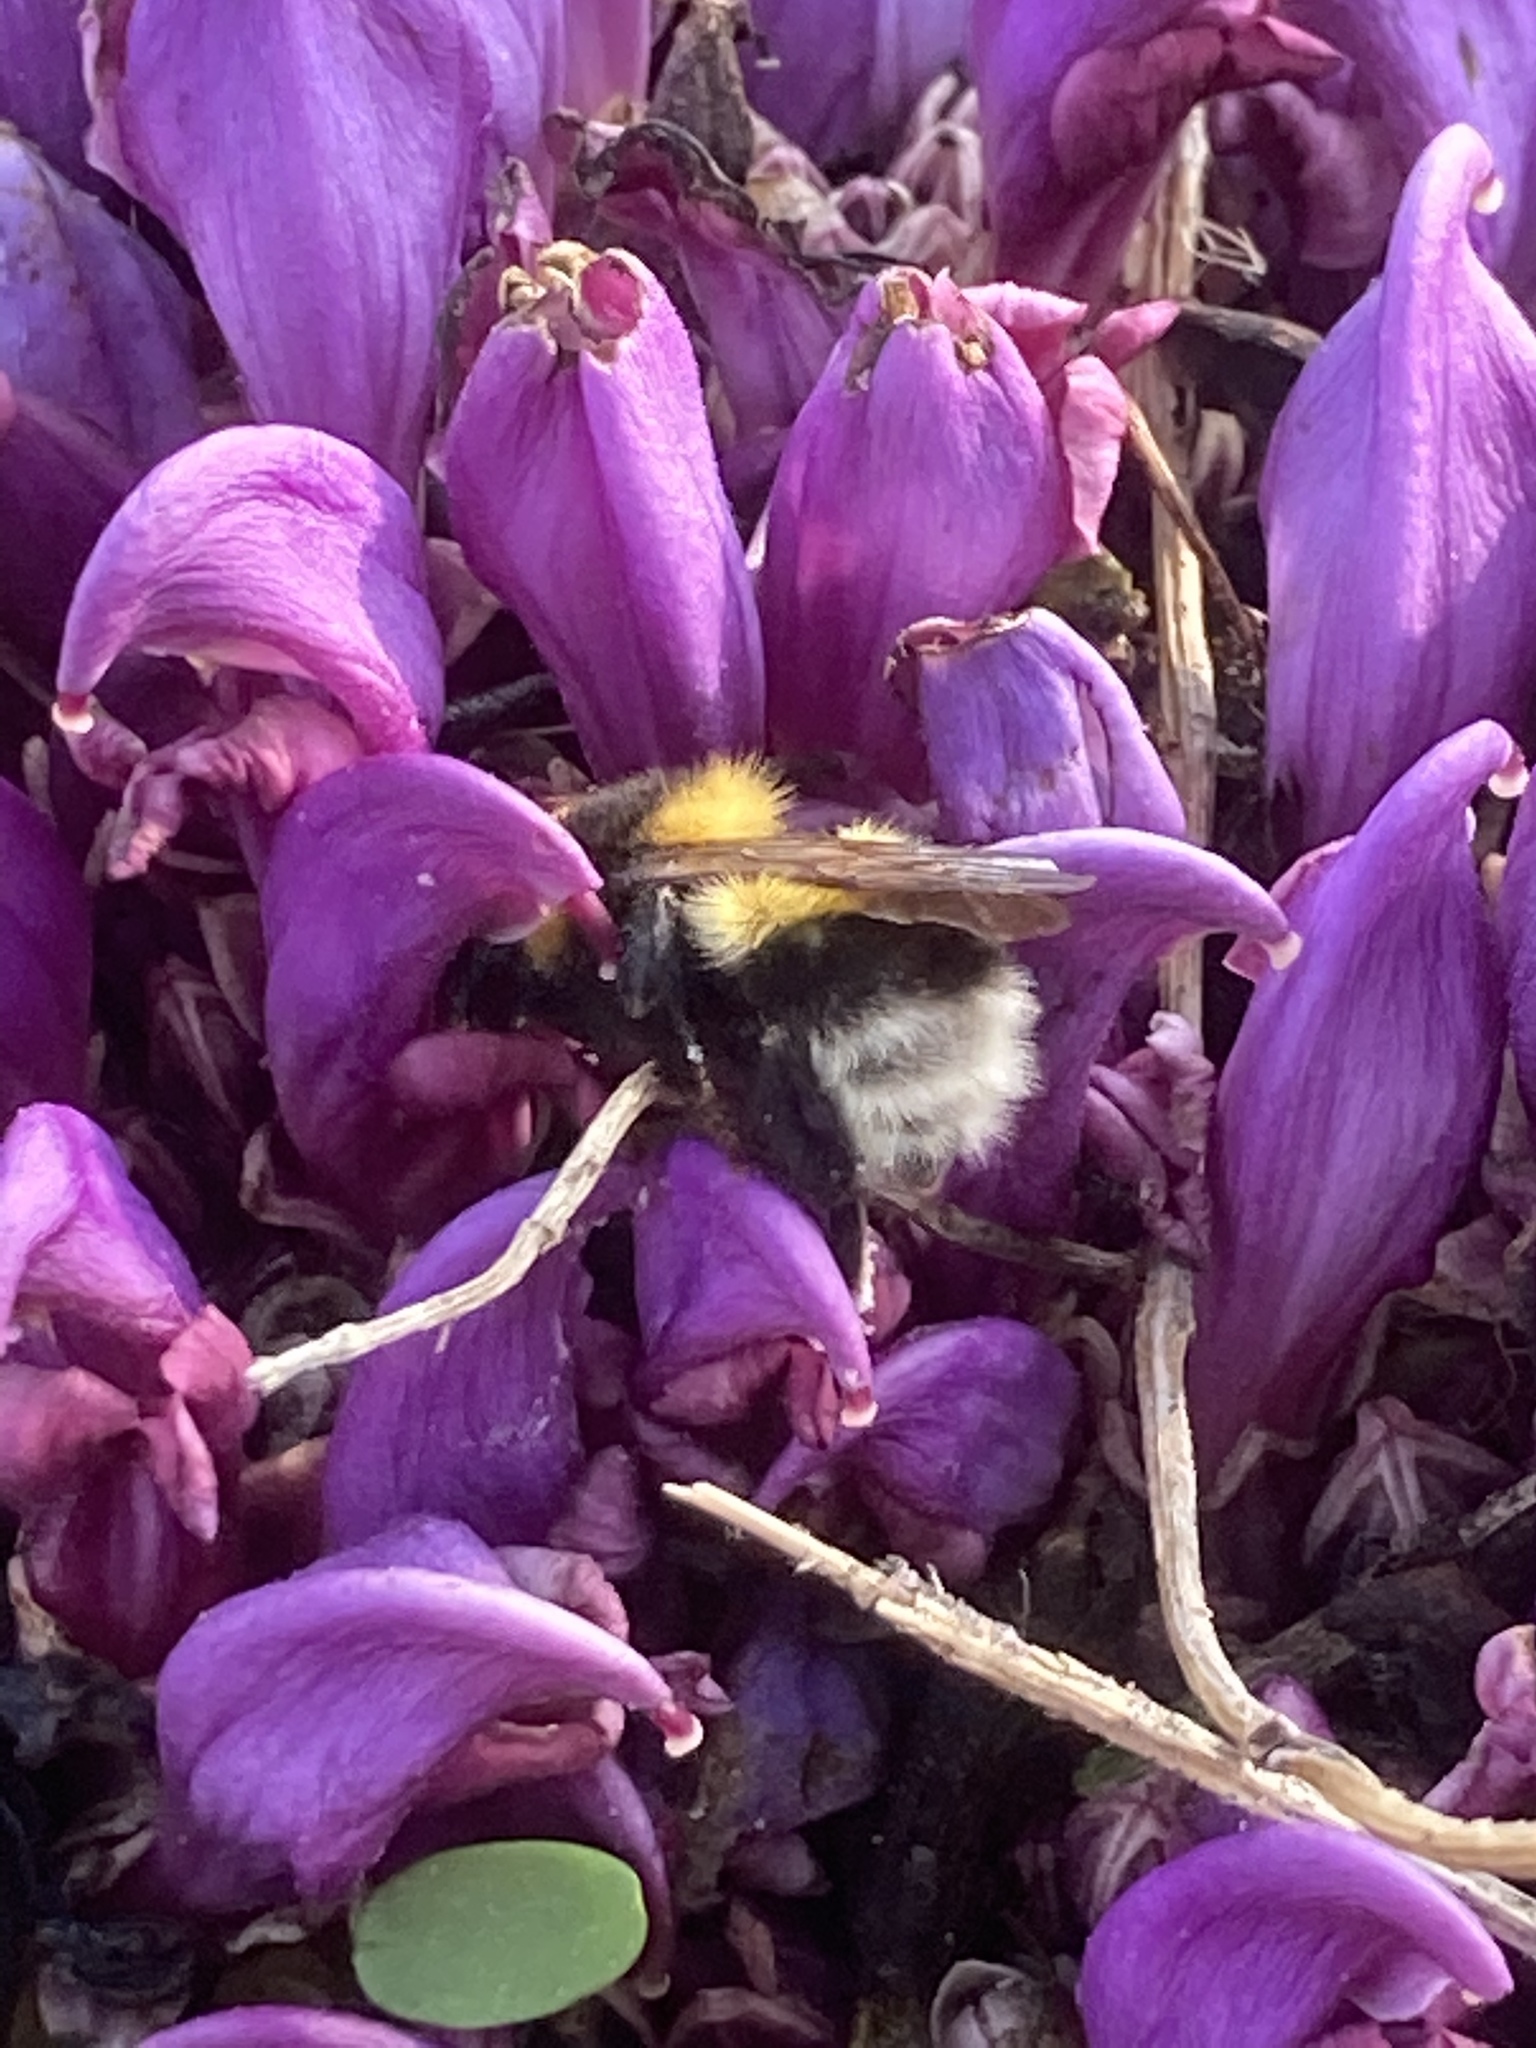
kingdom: Animalia
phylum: Arthropoda
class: Insecta
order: Hymenoptera
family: Apidae
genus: Bombus
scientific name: Bombus hortorum
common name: Garden bumblebee
